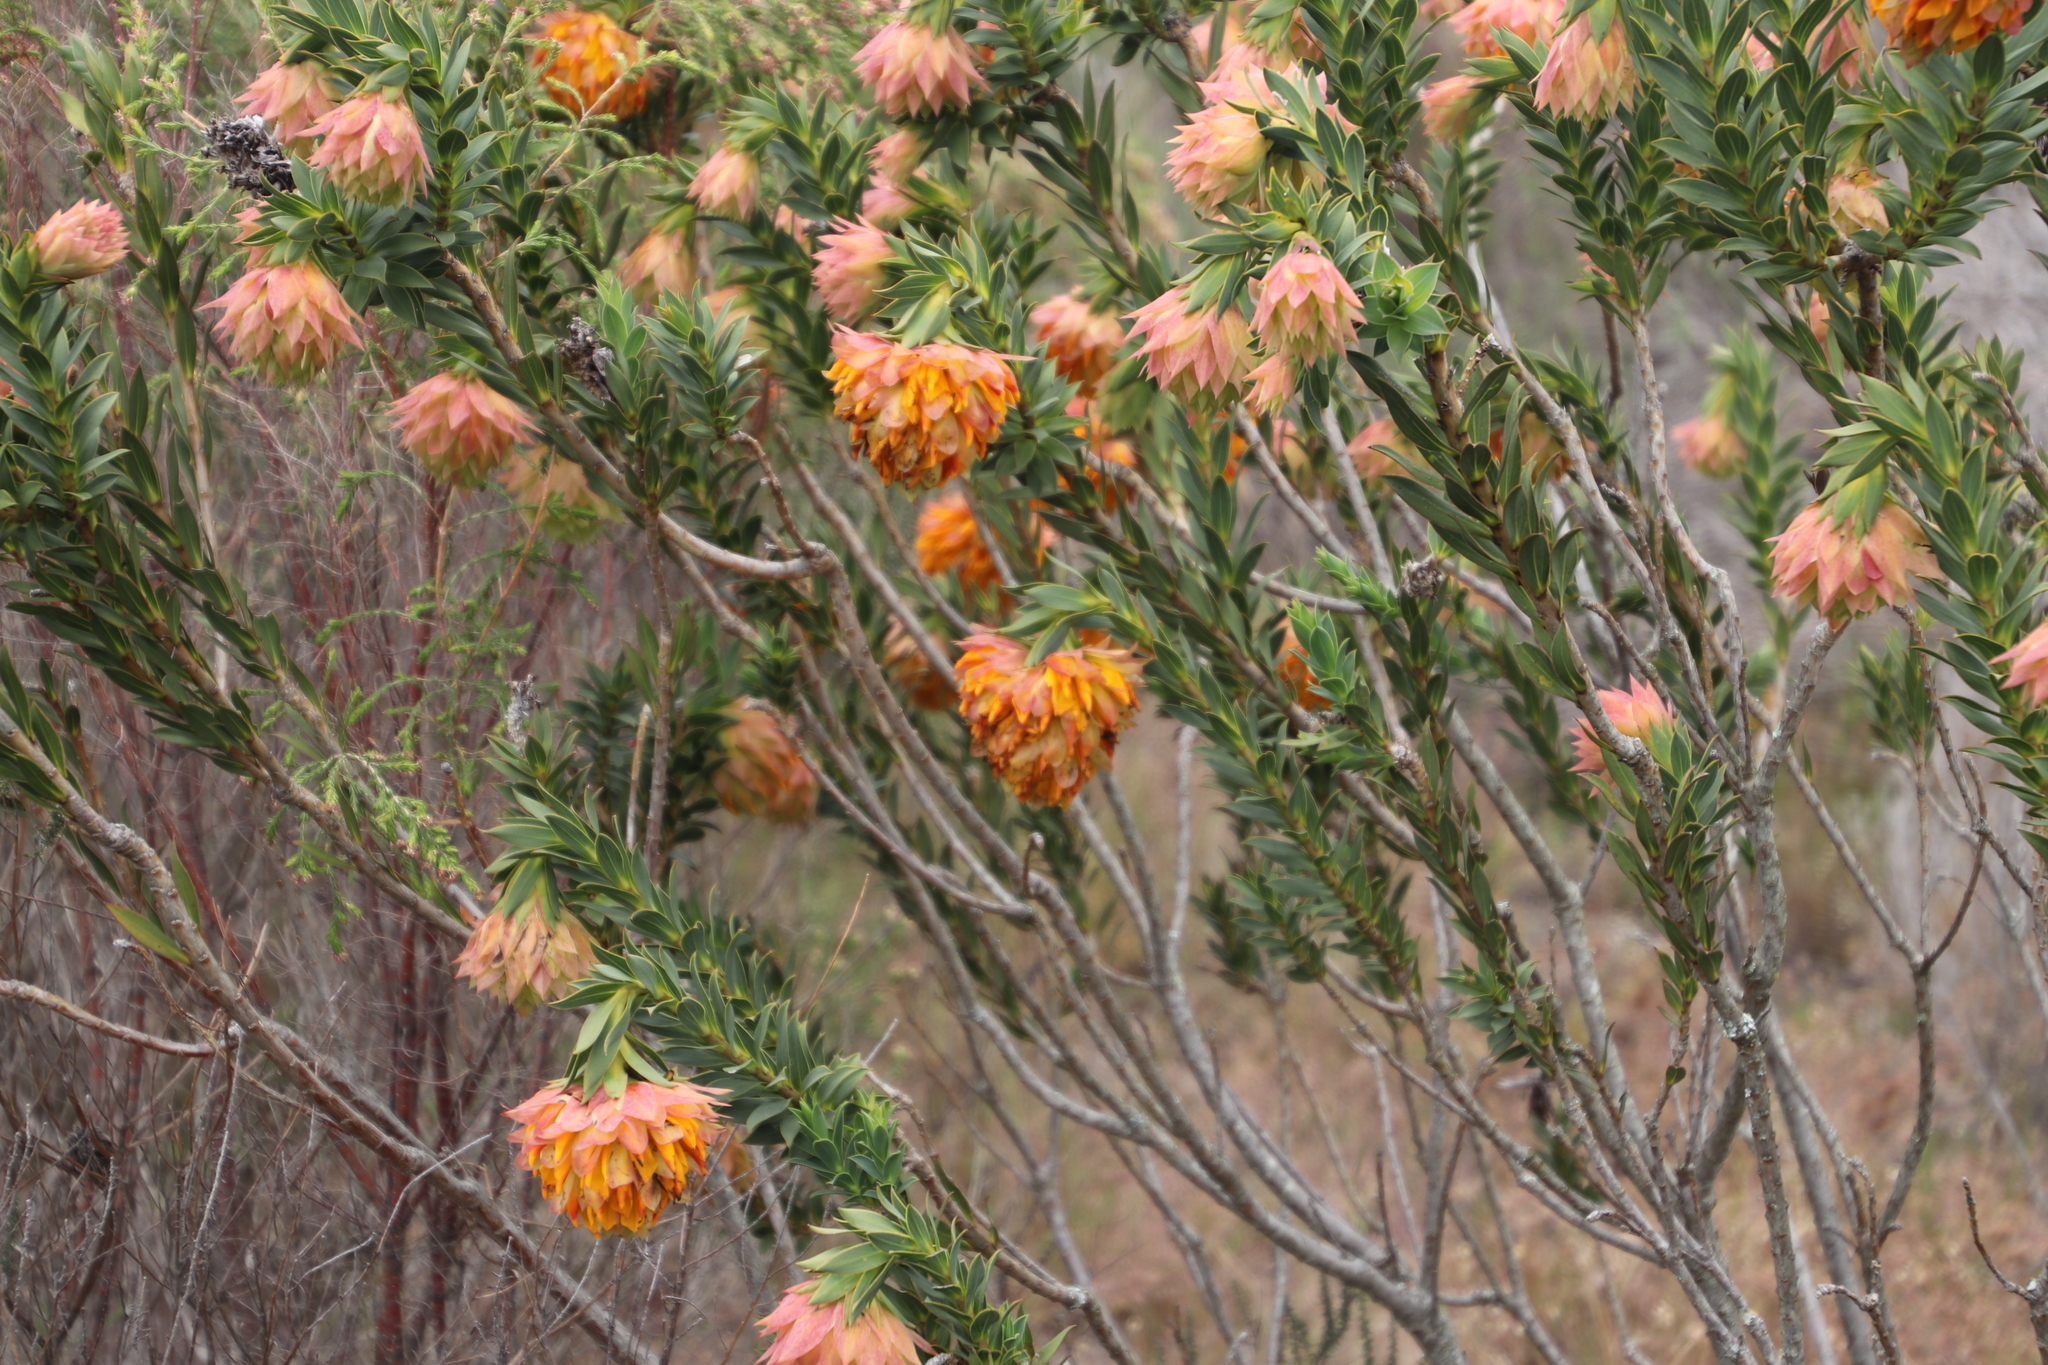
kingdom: Plantae
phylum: Tracheophyta
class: Magnoliopsida
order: Fabales
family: Fabaceae
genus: Liparia
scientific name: Liparia splendens
